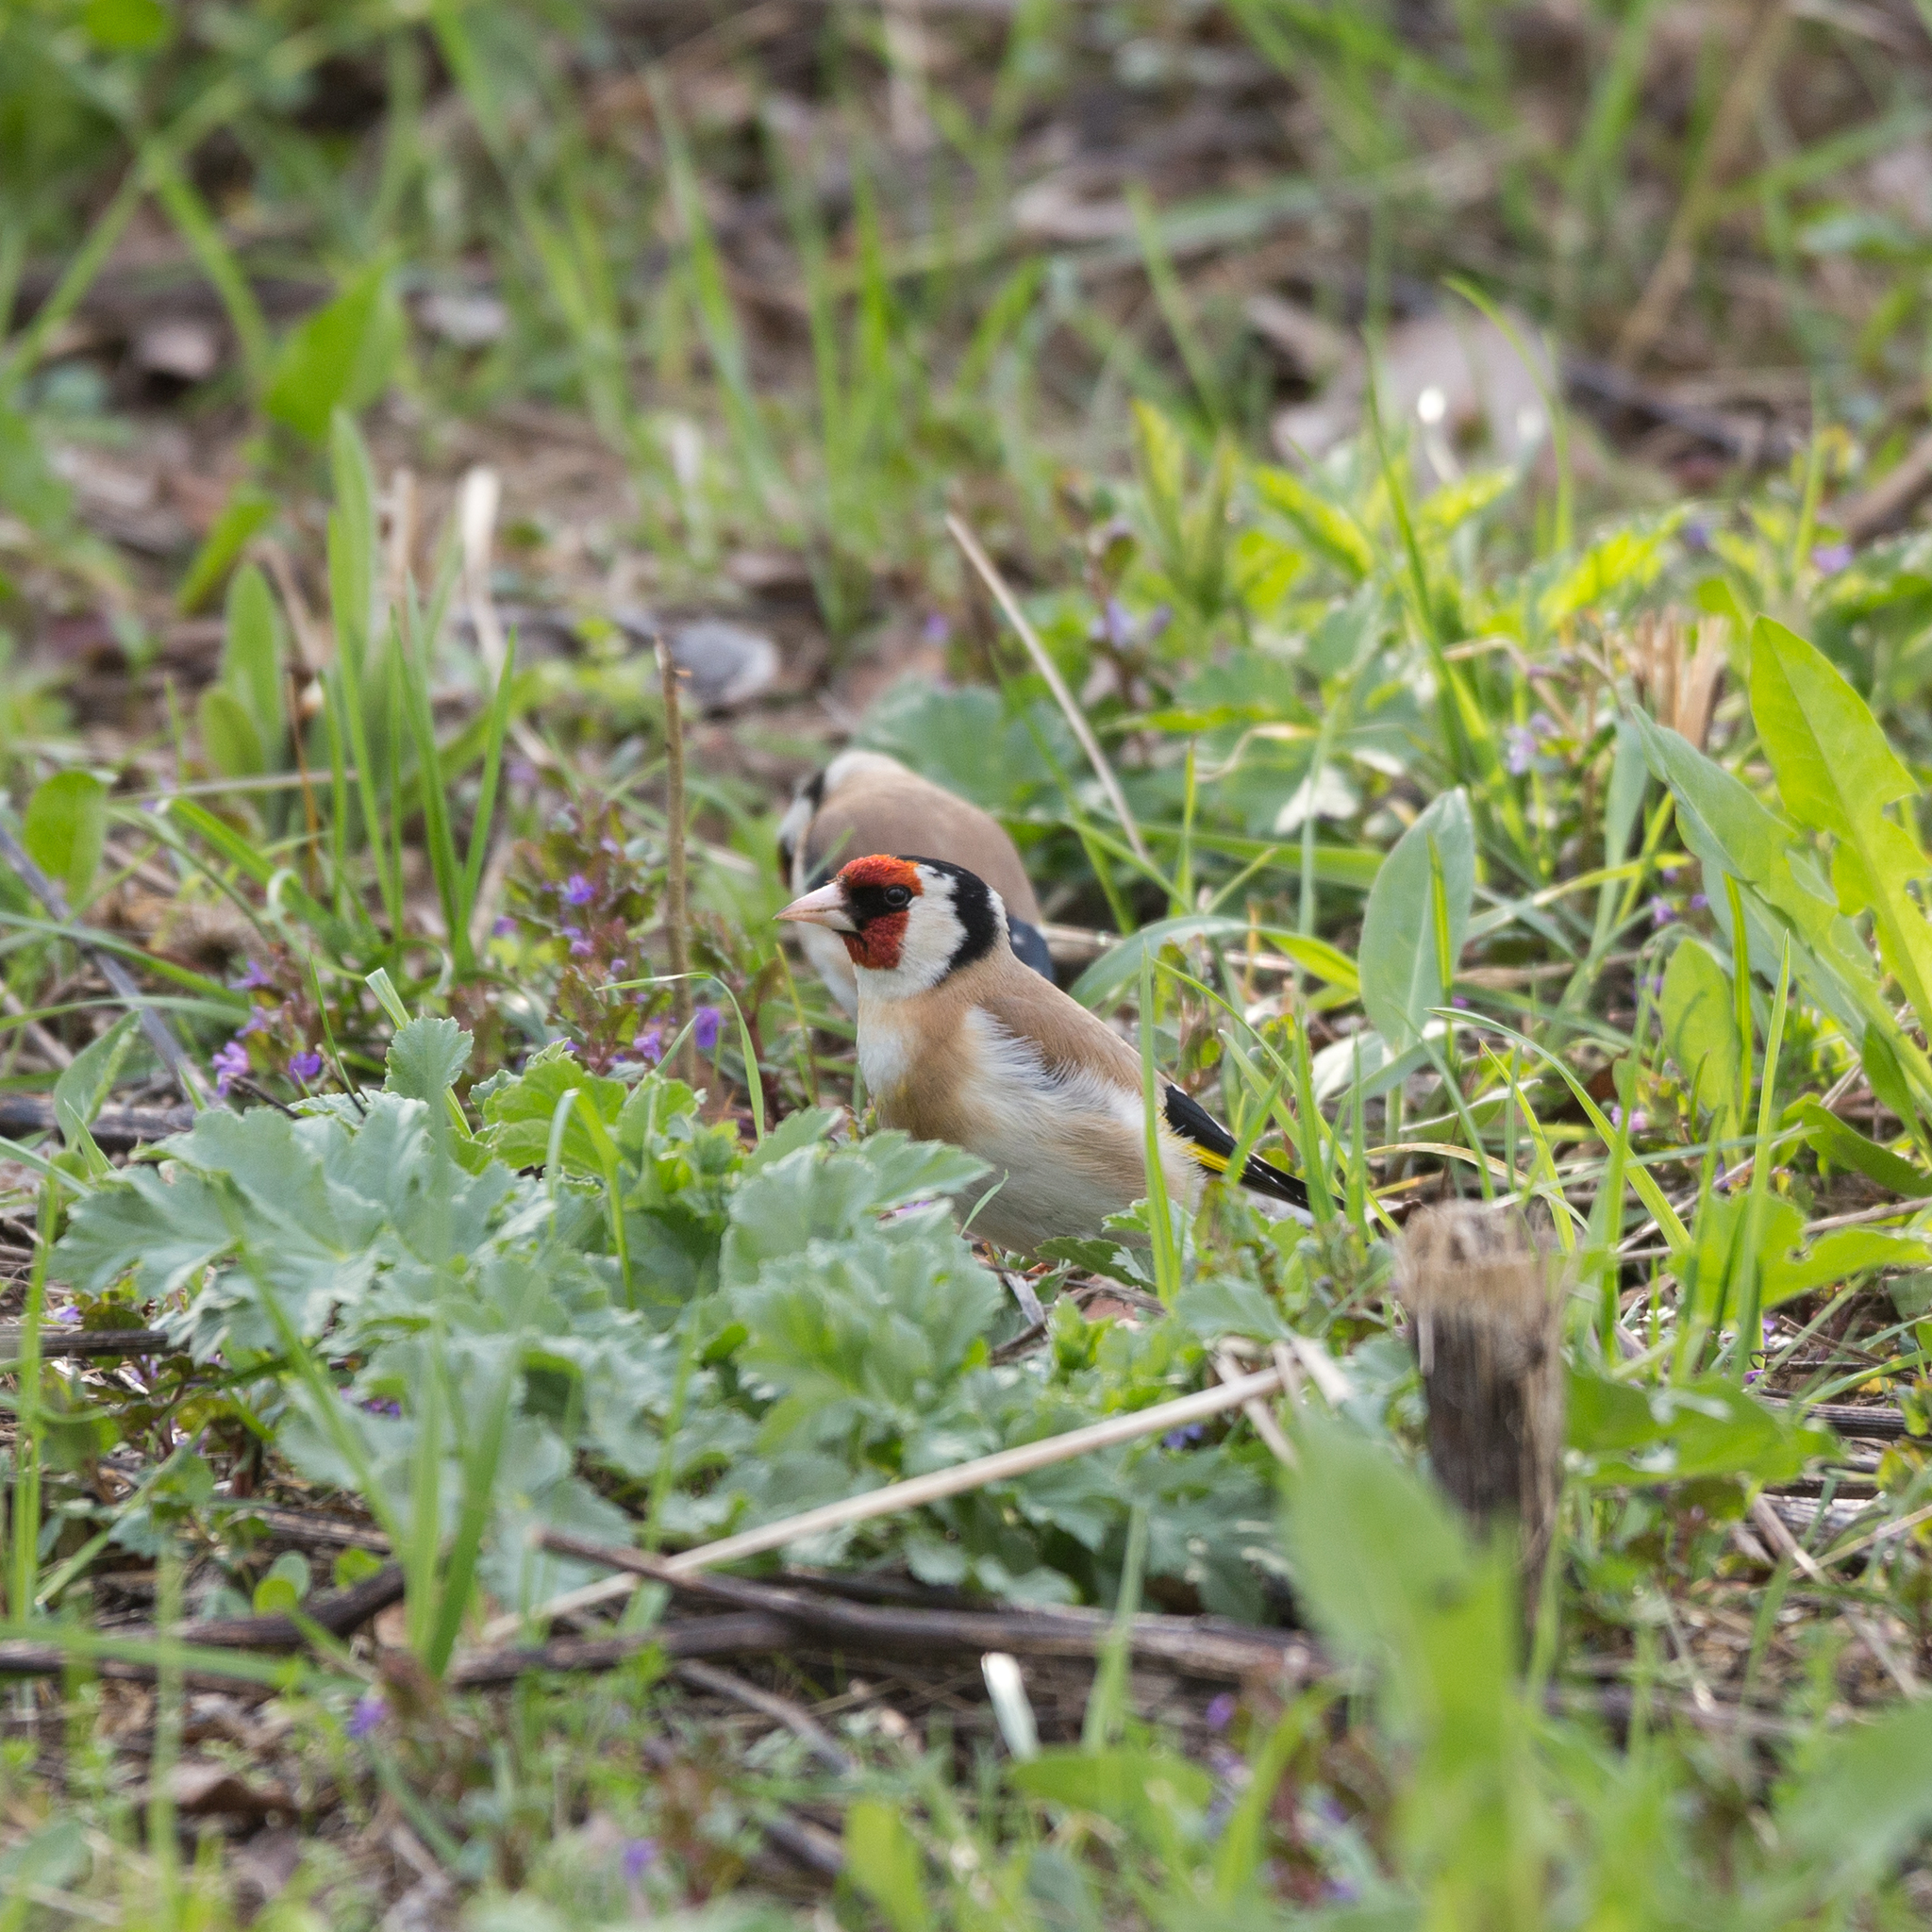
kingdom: Animalia
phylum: Chordata
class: Aves
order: Passeriformes
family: Fringillidae
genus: Carduelis
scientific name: Carduelis carduelis
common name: European goldfinch
